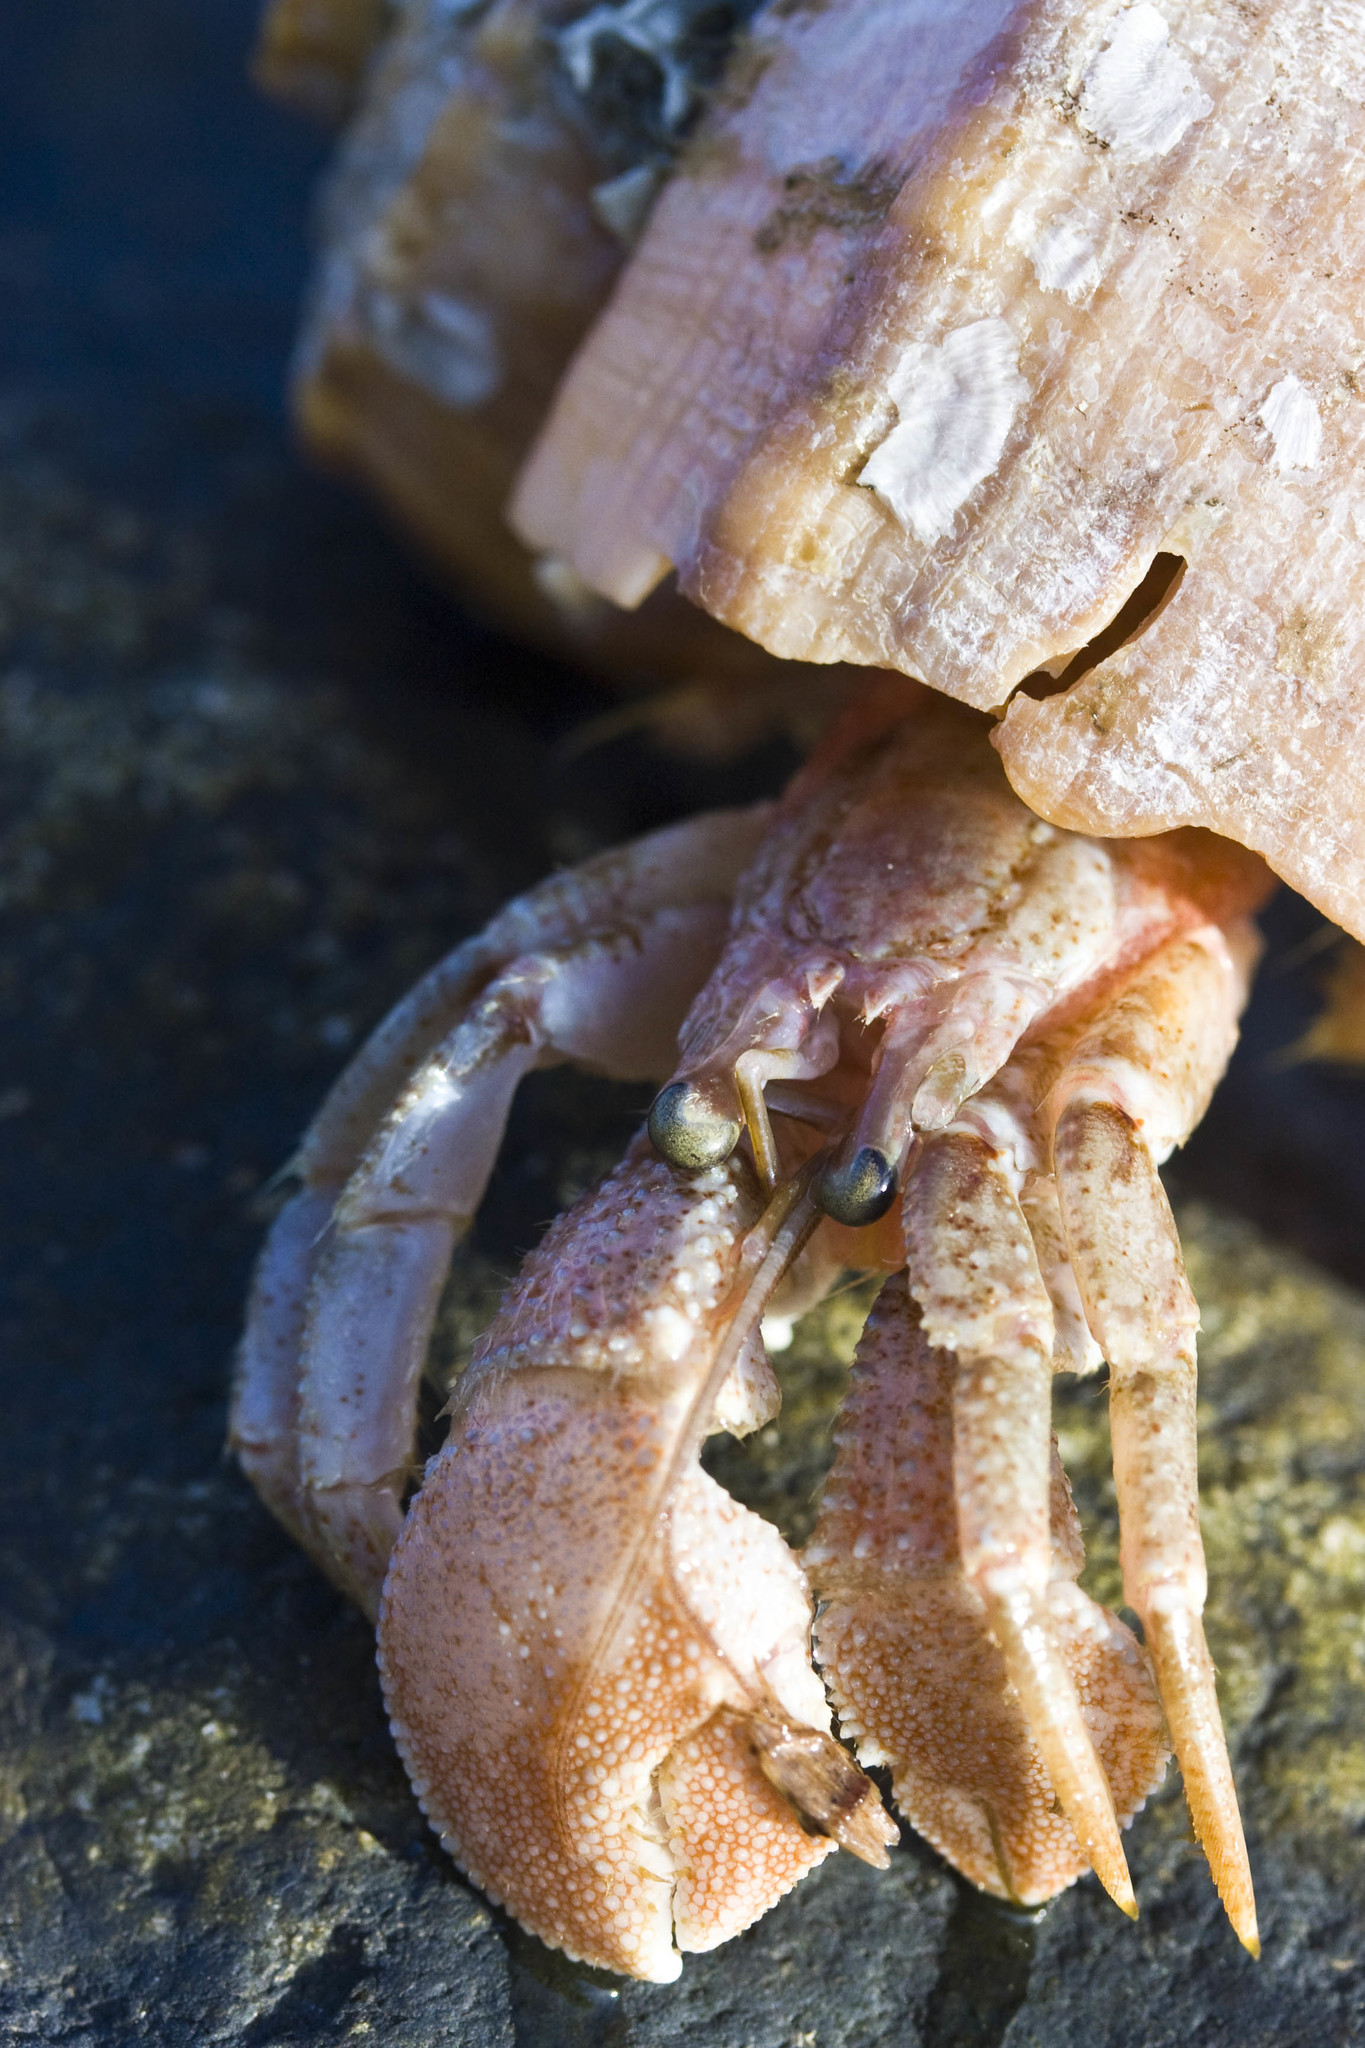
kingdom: Animalia
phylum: Arthropoda
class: Malacostraca
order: Decapoda
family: Paguridae
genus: Pagurus
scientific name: Pagurus pollicaris
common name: Flatclaw hermit
